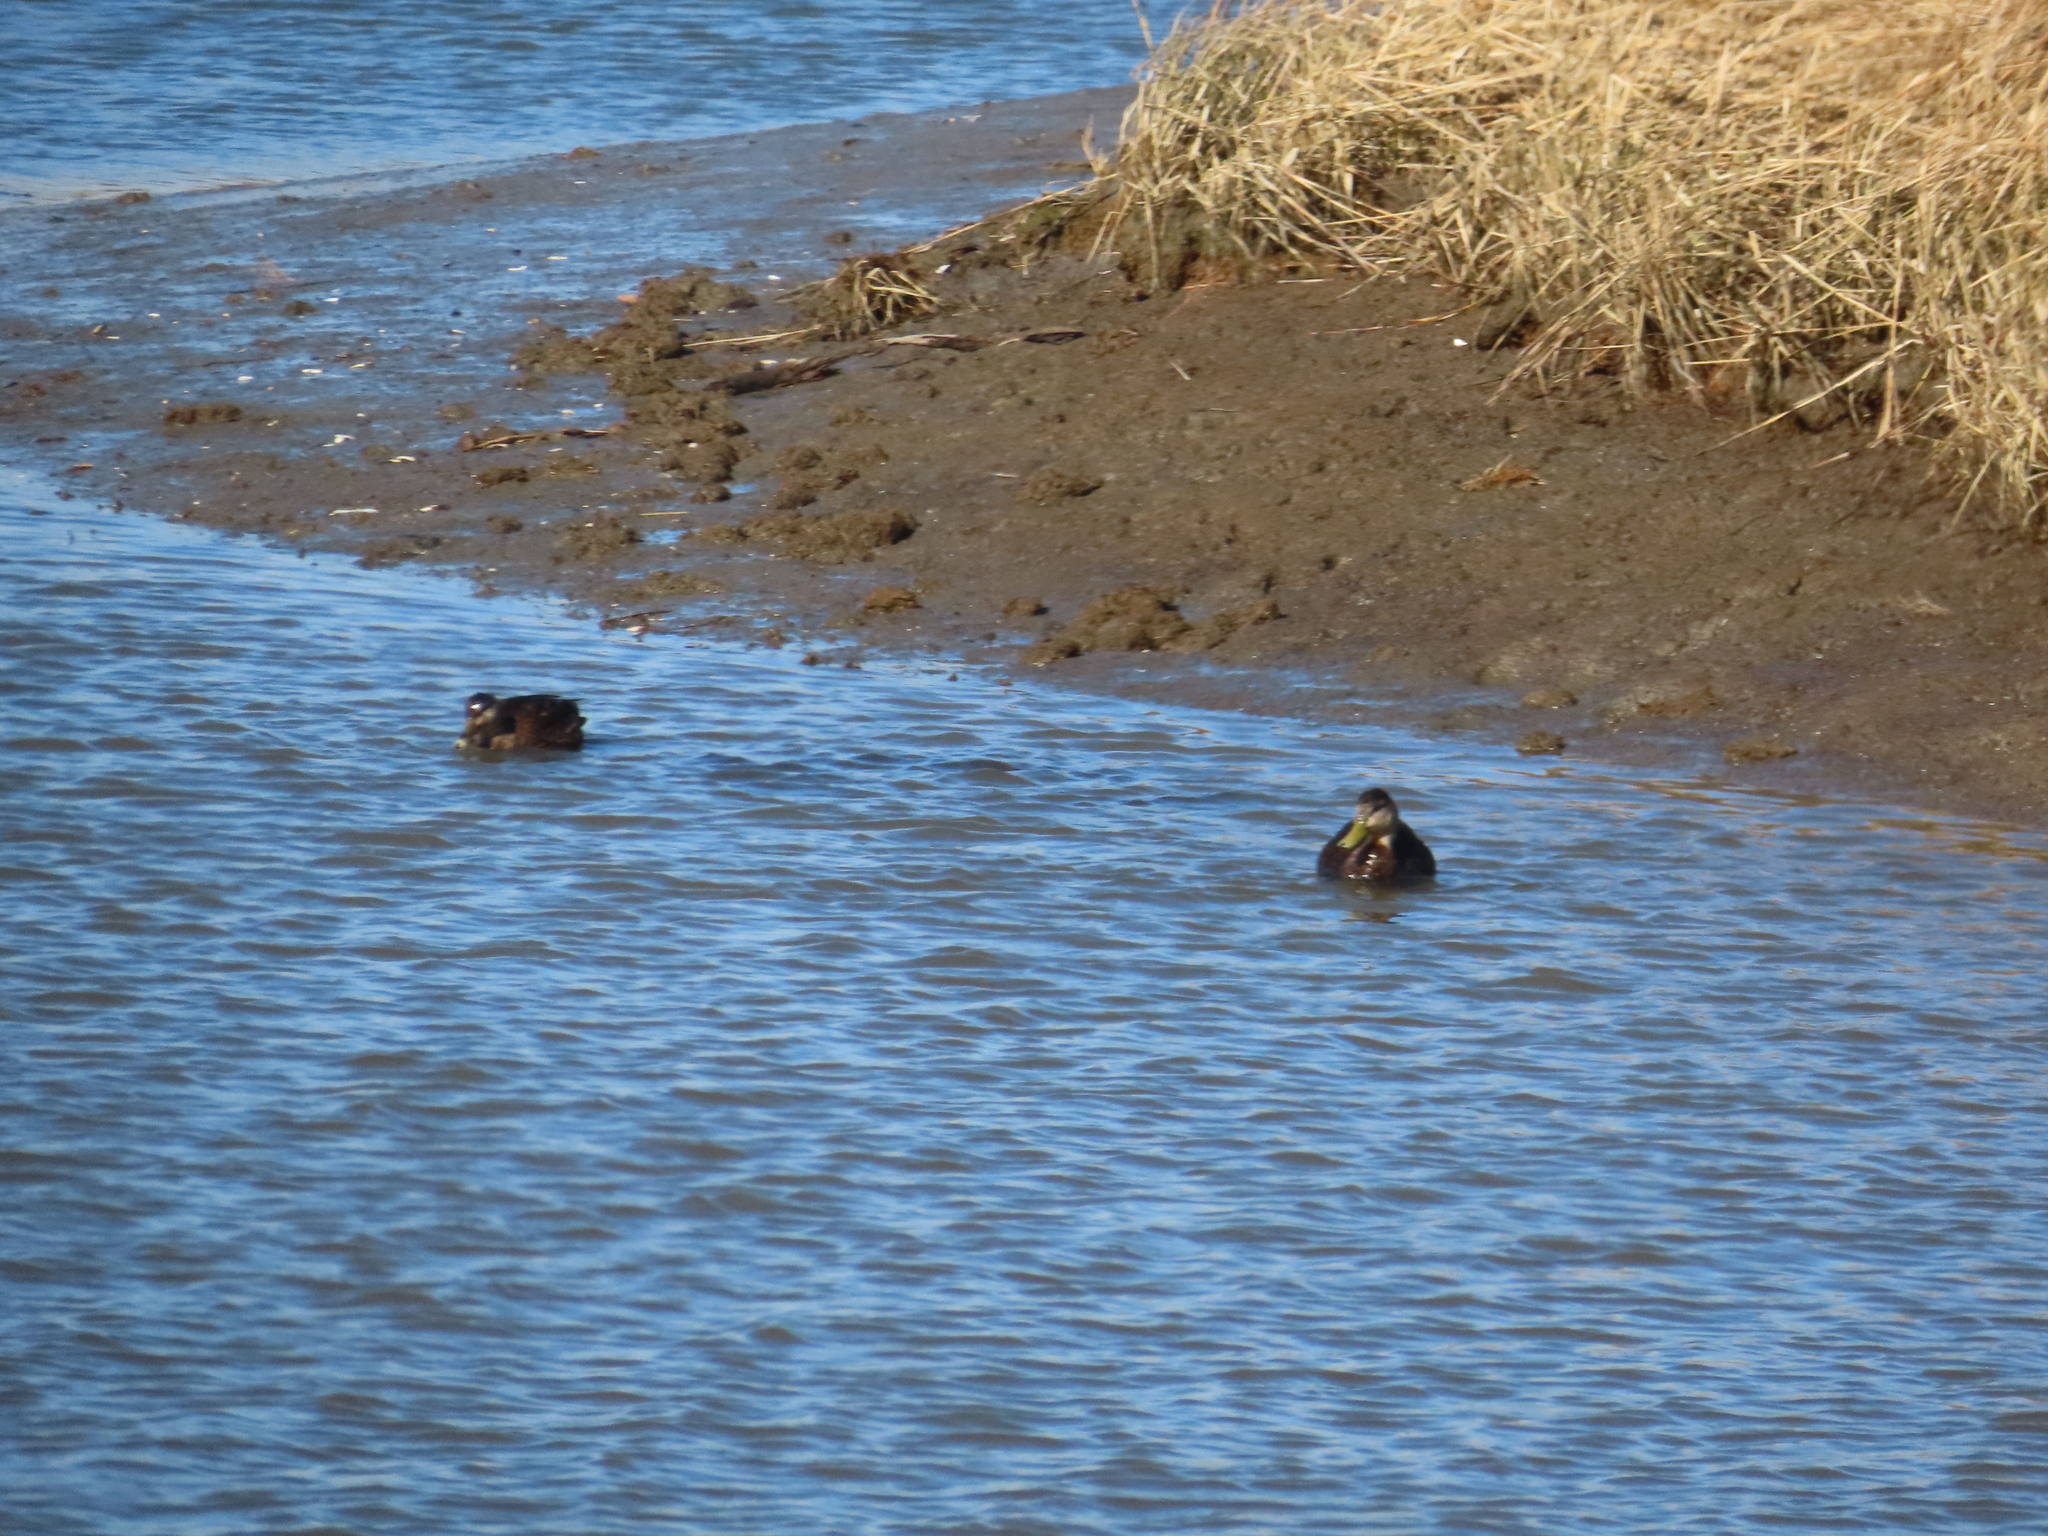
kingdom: Animalia
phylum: Chordata
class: Aves
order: Anseriformes
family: Anatidae
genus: Anas
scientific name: Anas rubripes
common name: American black duck
